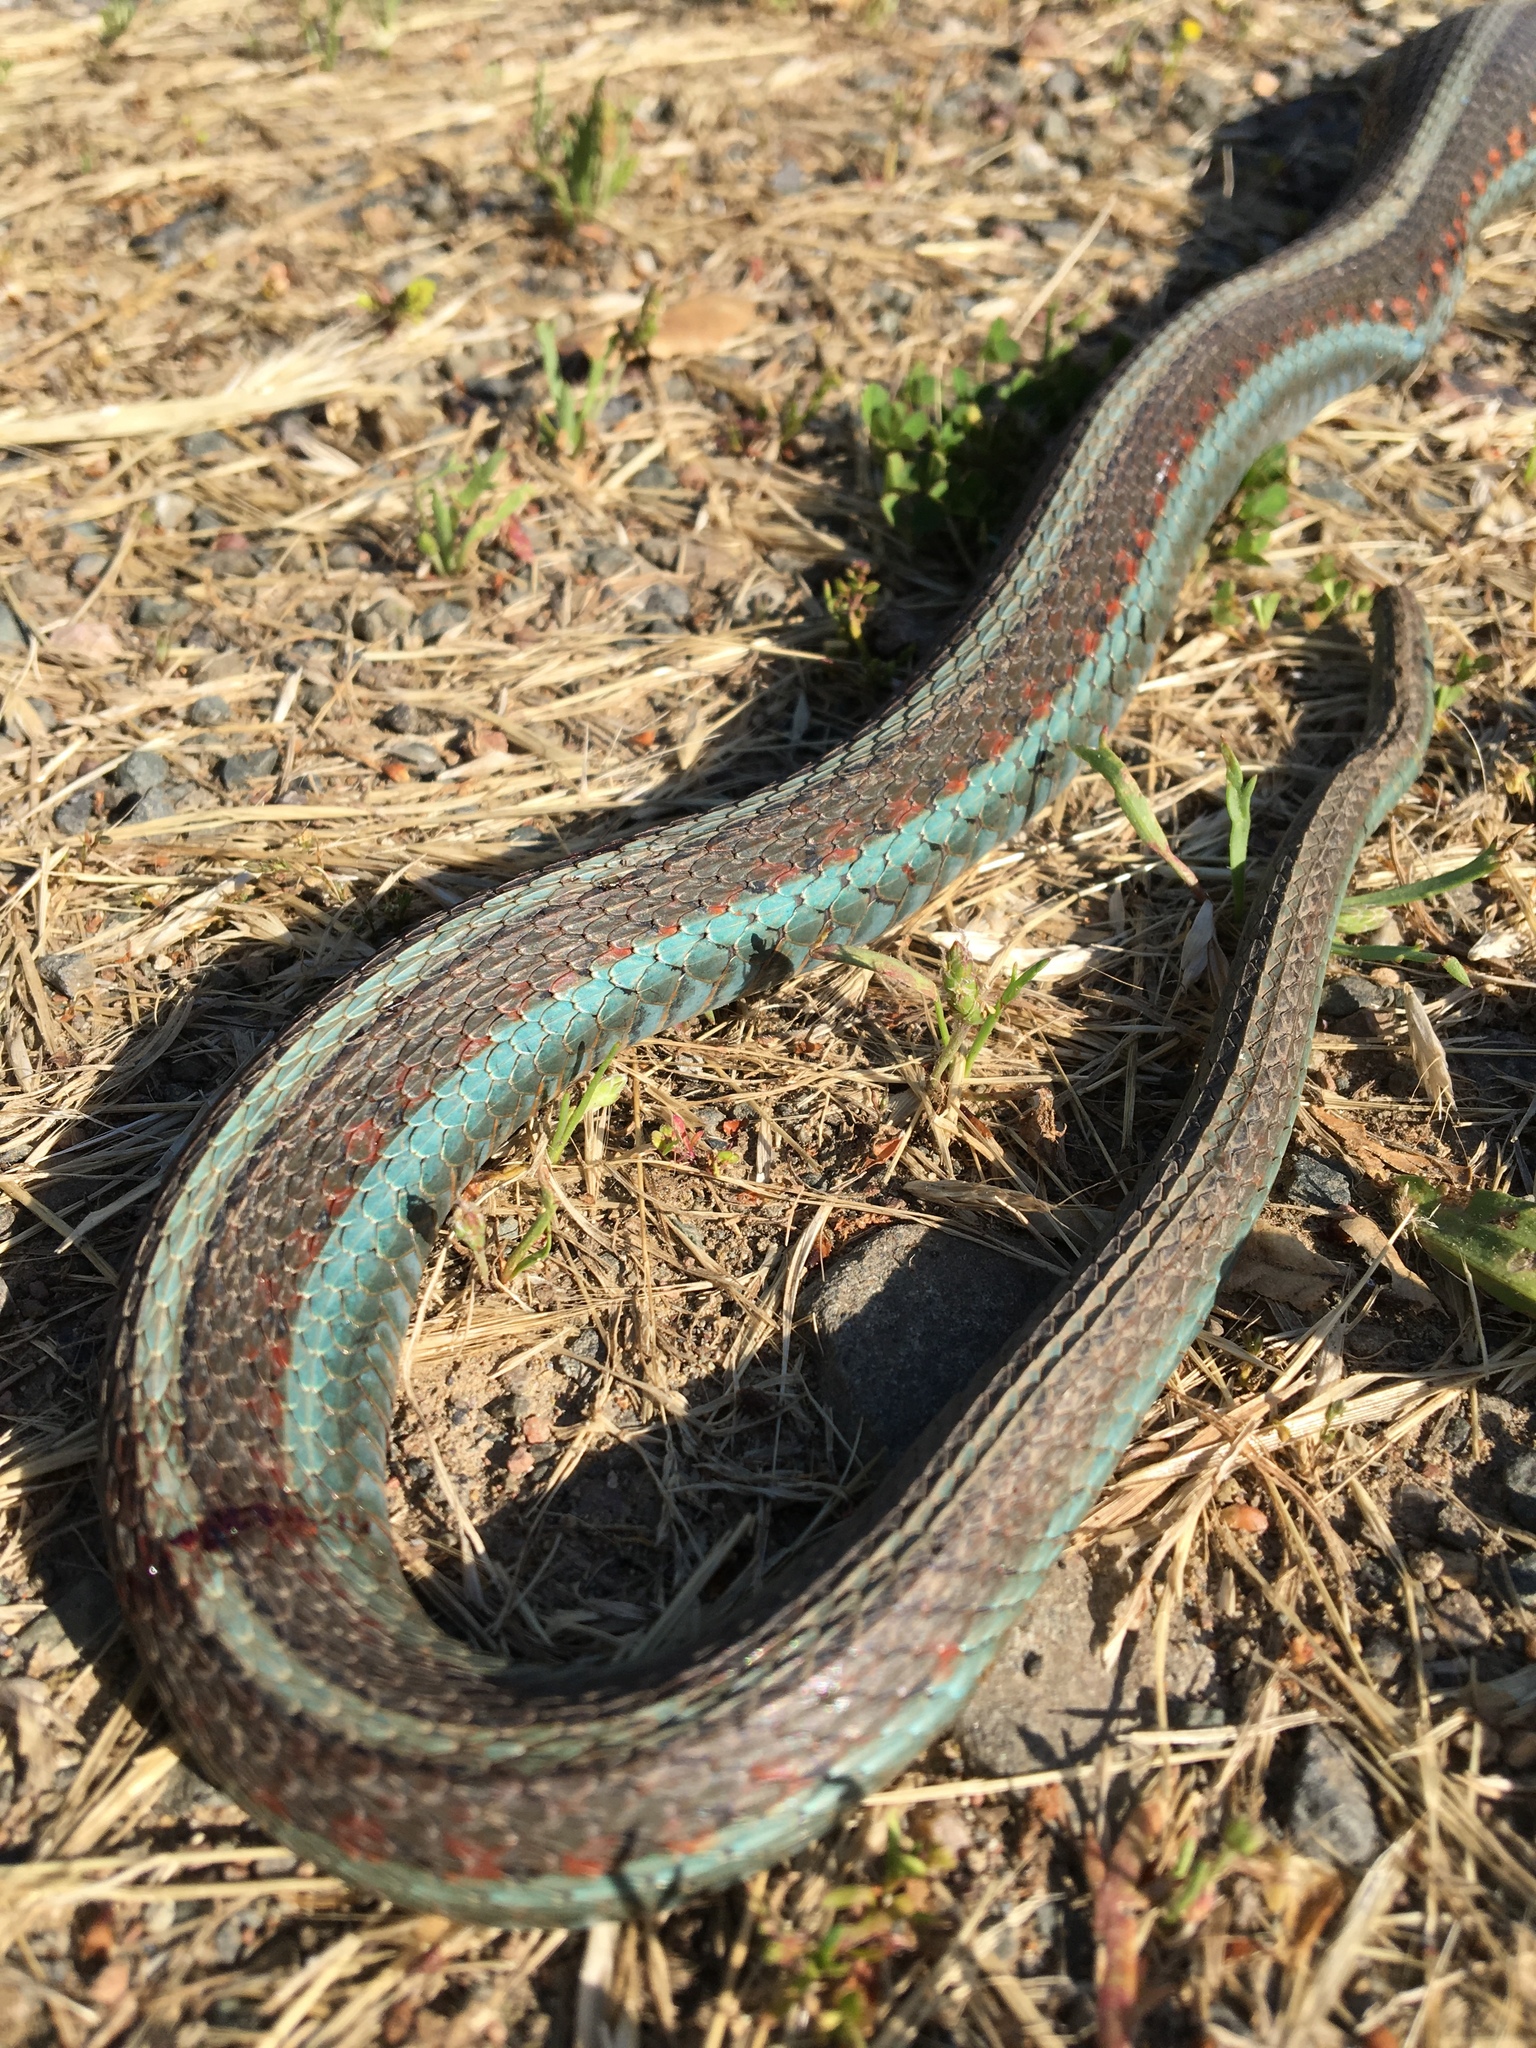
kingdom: Animalia
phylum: Chordata
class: Squamata
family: Colubridae
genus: Thamnophis
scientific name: Thamnophis sirtalis
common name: Common garter snake
